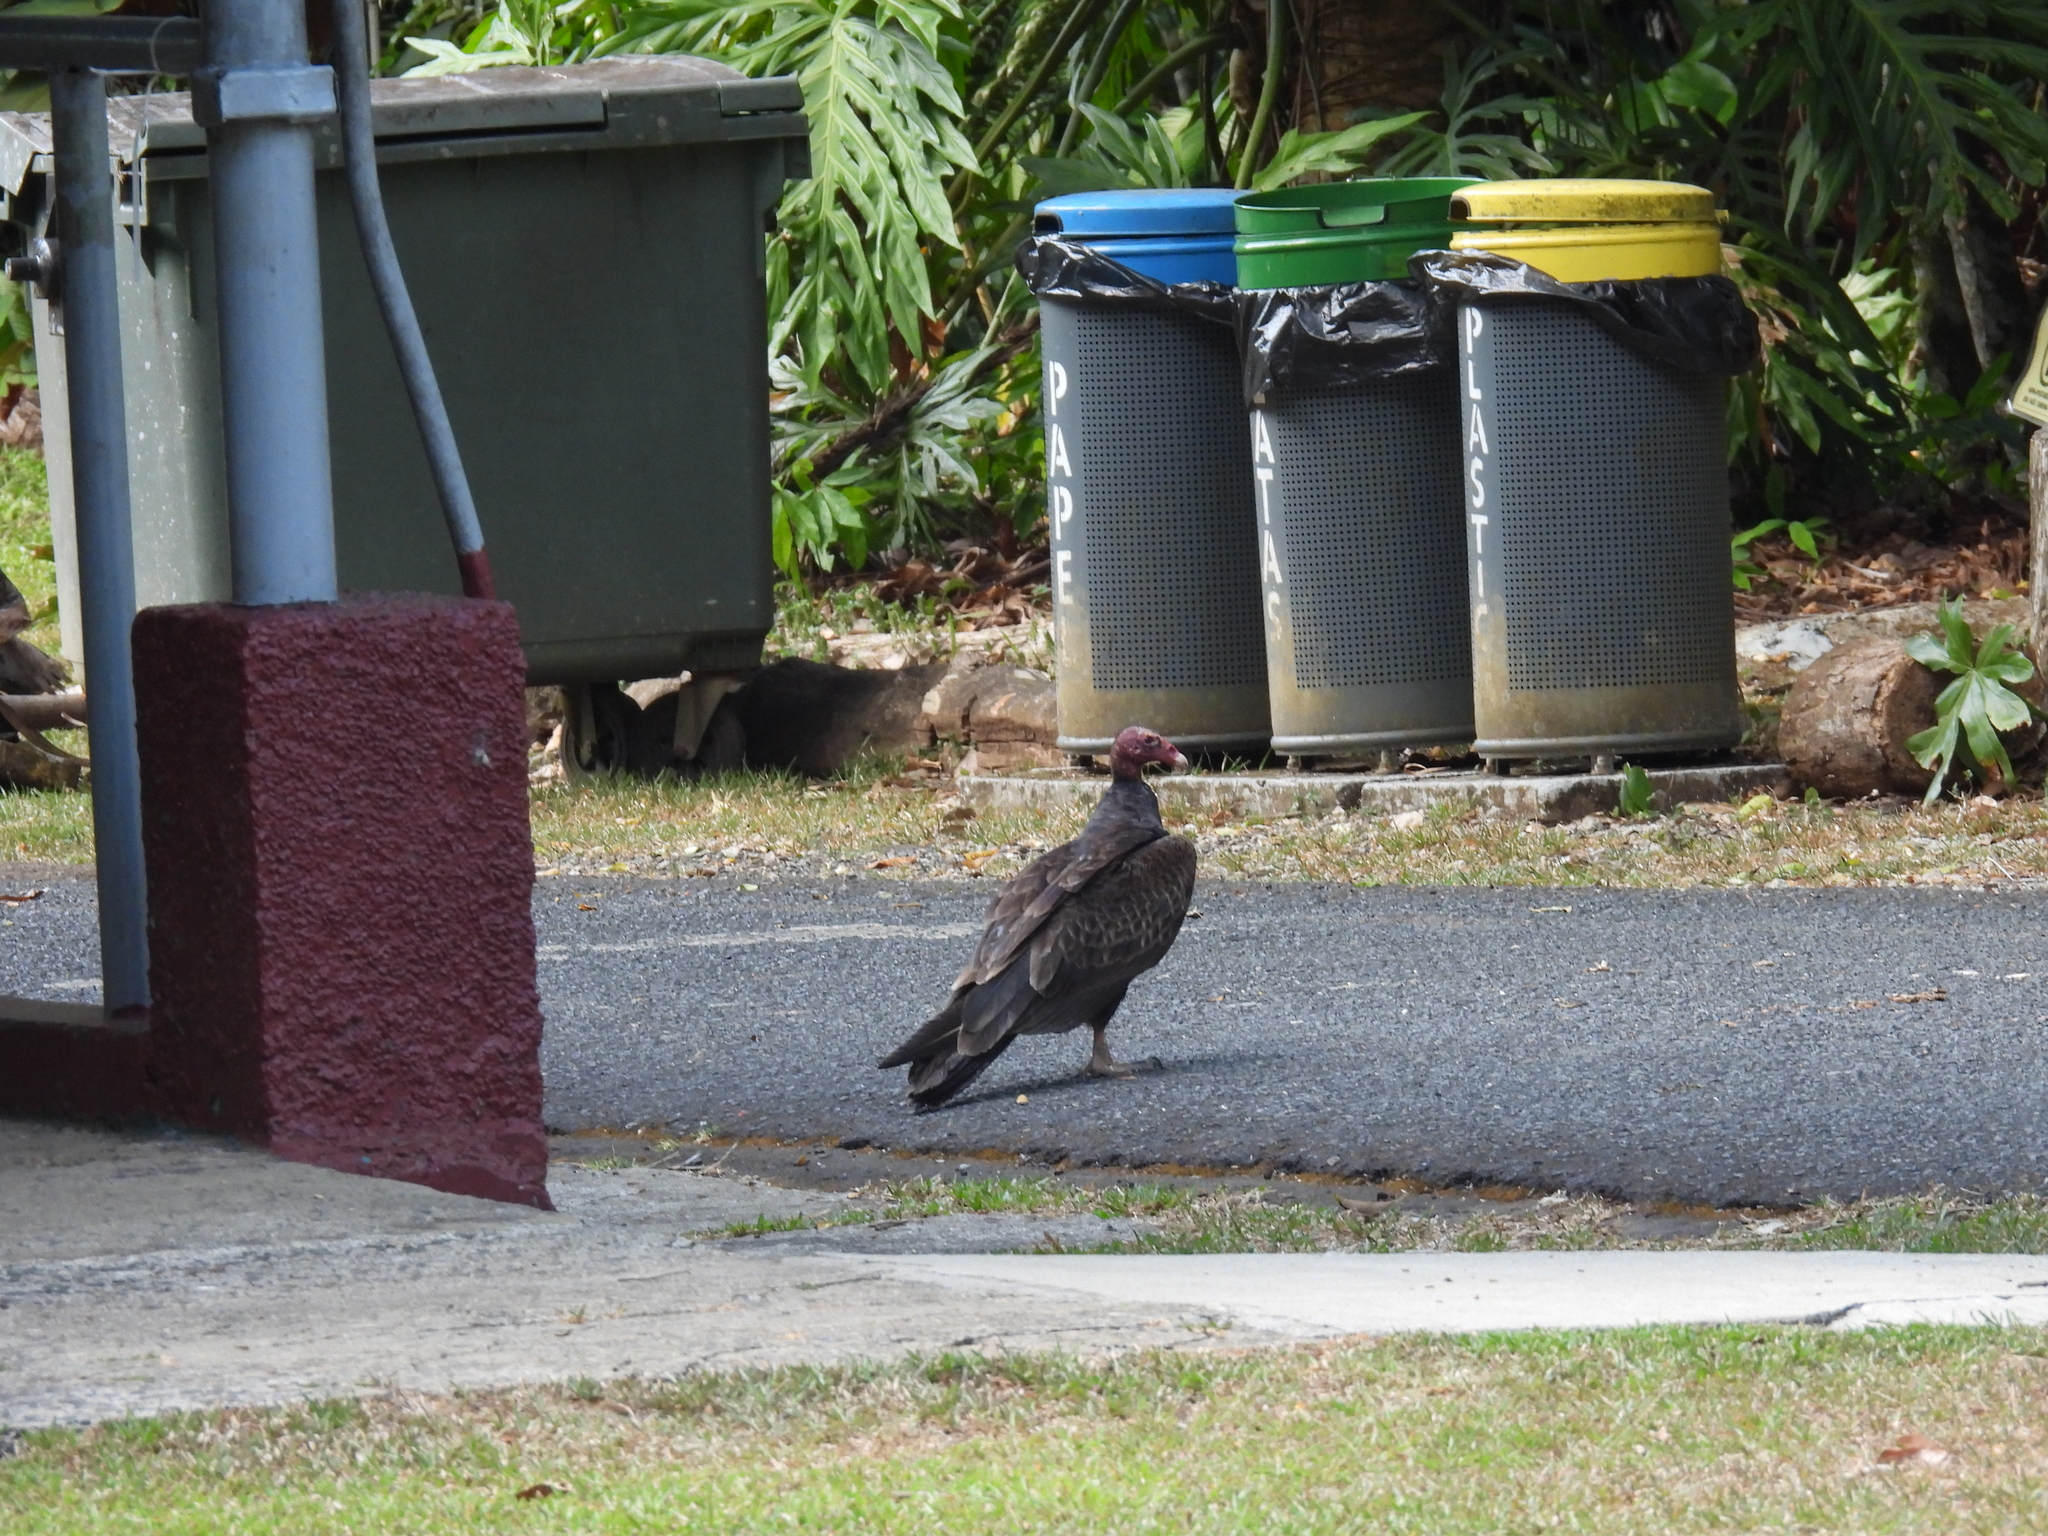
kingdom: Animalia
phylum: Chordata
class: Aves
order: Accipitriformes
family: Cathartidae
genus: Cathartes
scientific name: Cathartes aura
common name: Turkey vulture
